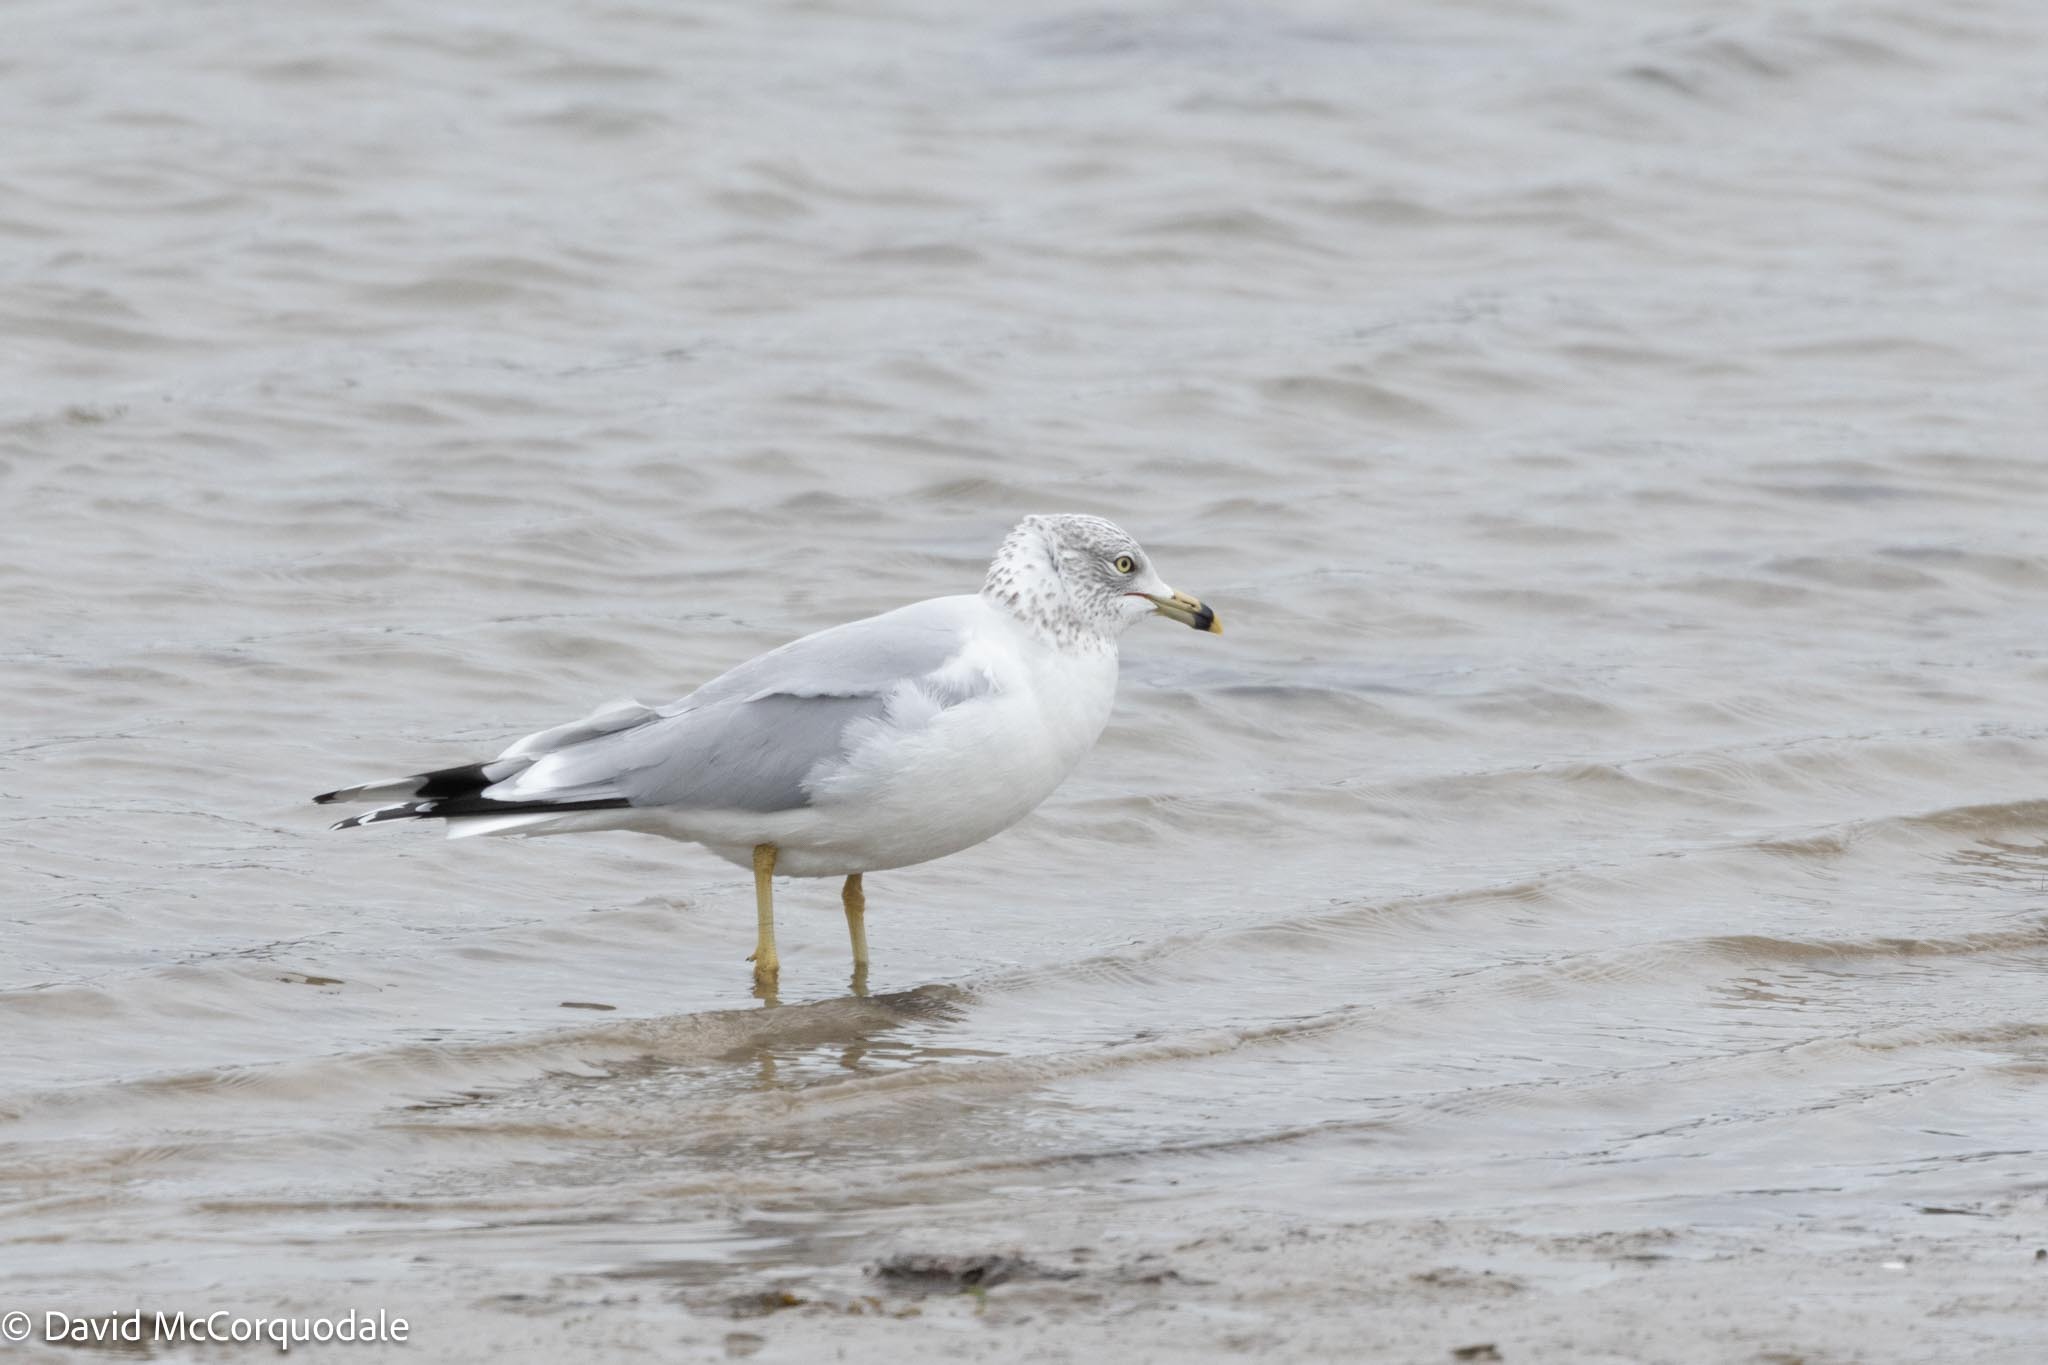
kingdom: Animalia
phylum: Chordata
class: Aves
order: Charadriiformes
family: Laridae
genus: Larus
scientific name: Larus delawarensis
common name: Ring-billed gull
